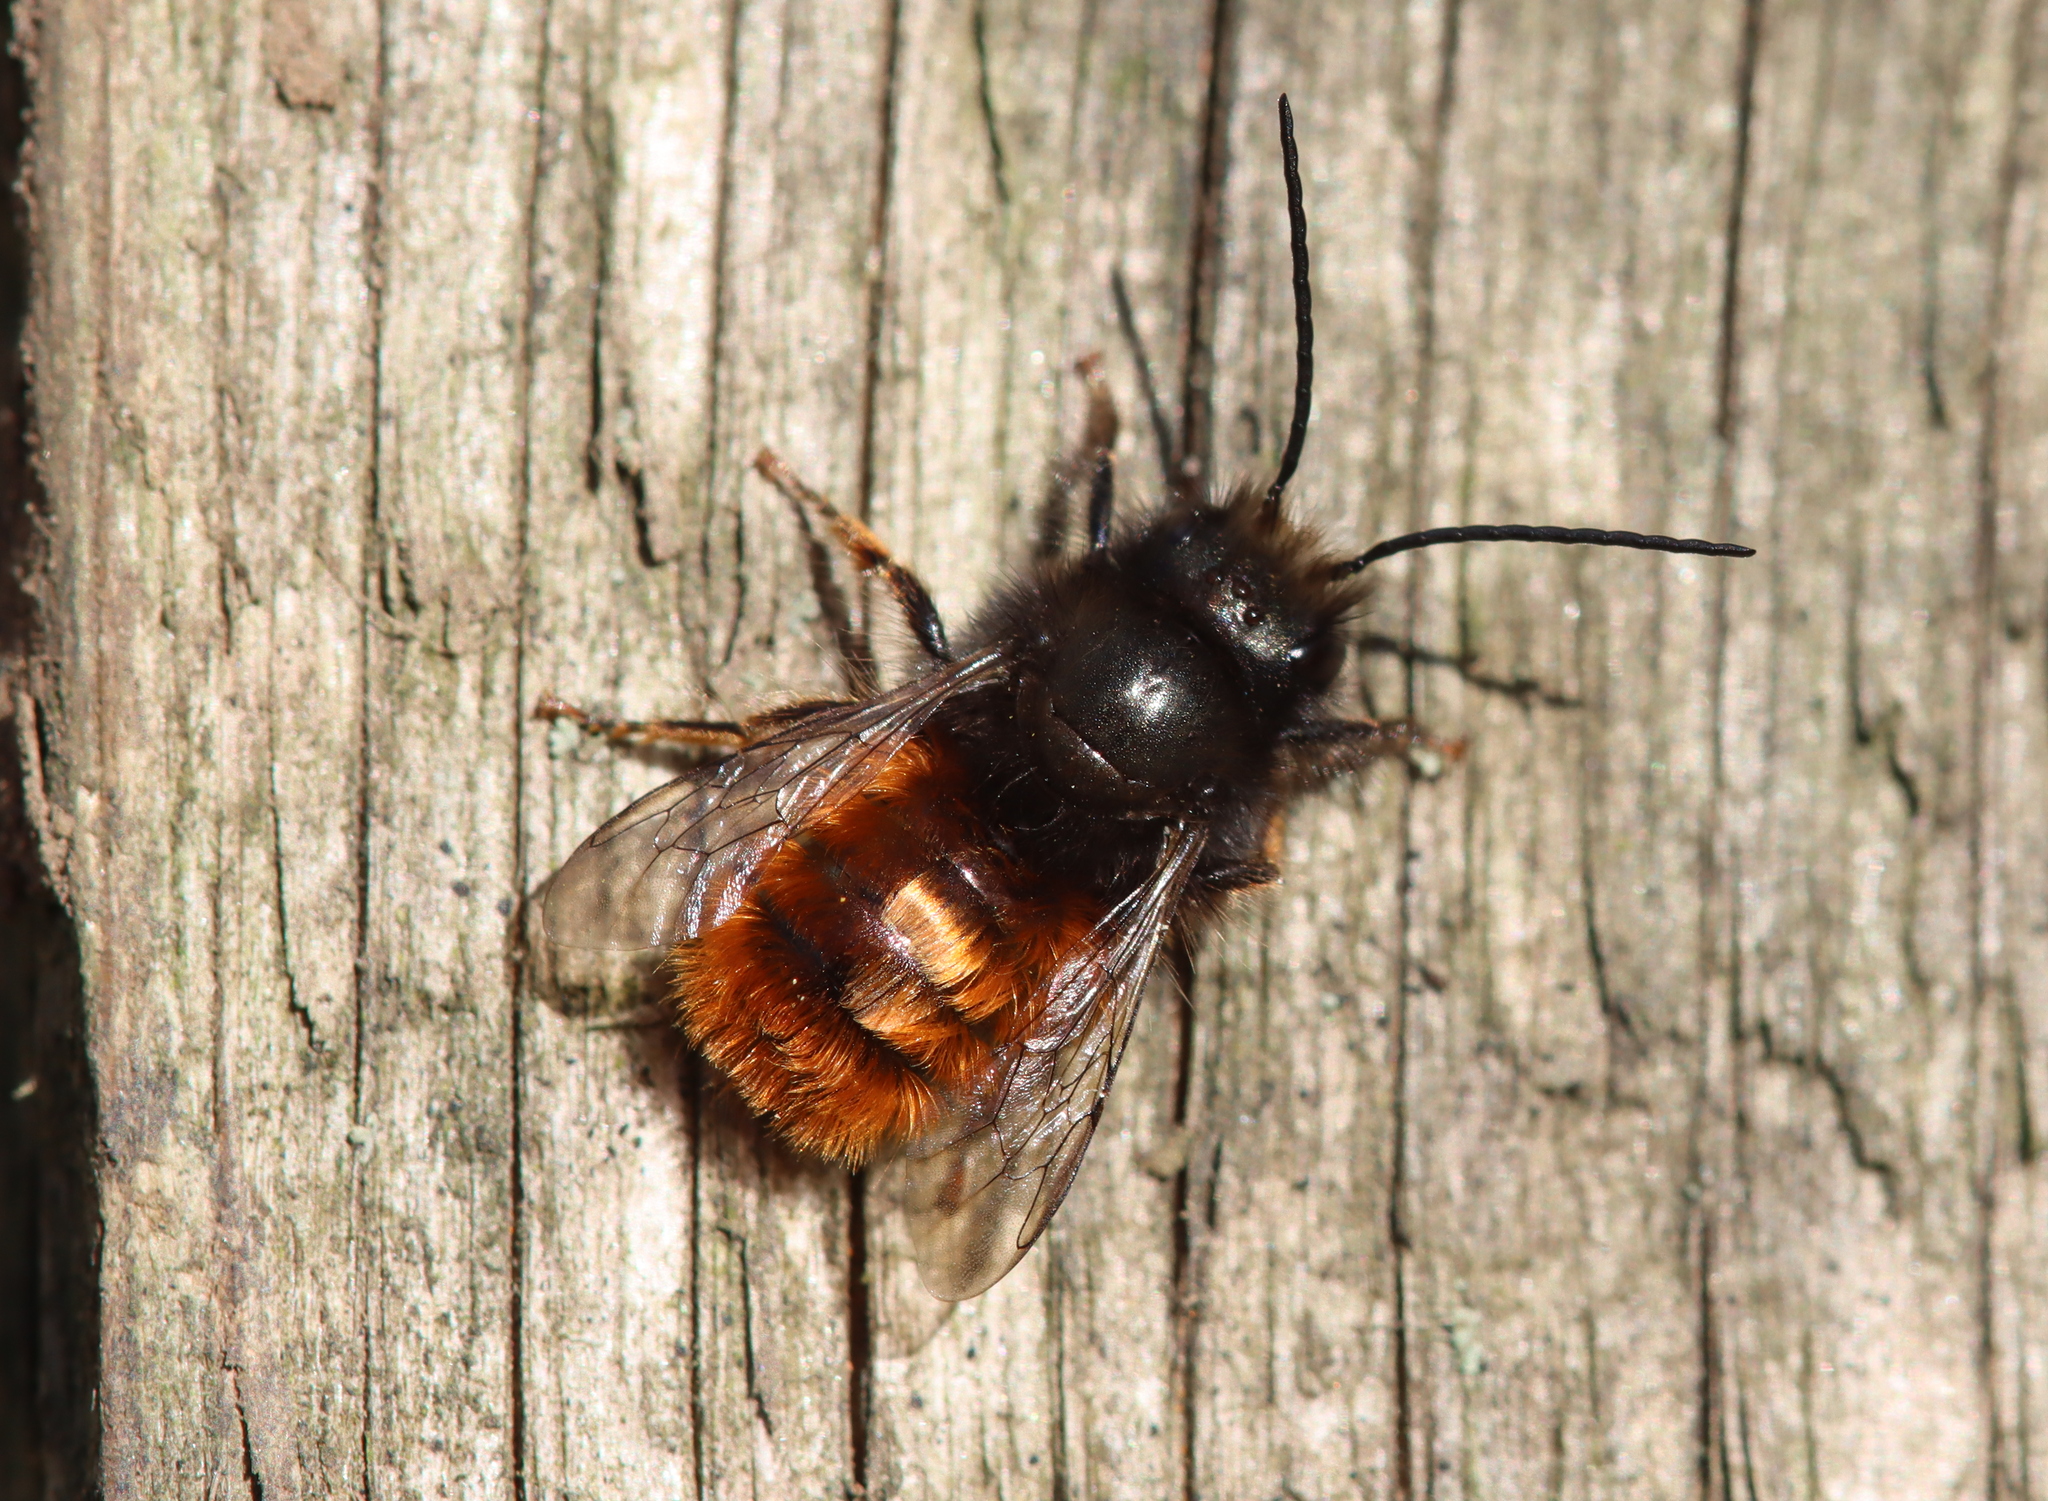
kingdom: Animalia
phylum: Arthropoda
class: Insecta
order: Hymenoptera
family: Megachilidae
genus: Osmia
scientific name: Osmia cornuta
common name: Mason bee
